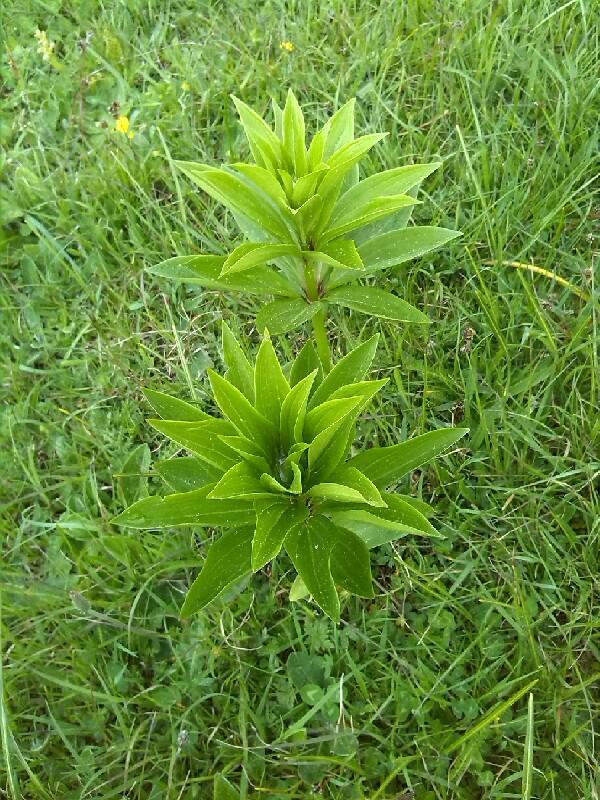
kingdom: Plantae
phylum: Tracheophyta
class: Liliopsida
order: Liliales
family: Liliaceae
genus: Lilium
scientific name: Lilium martagon
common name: Martagon lily
